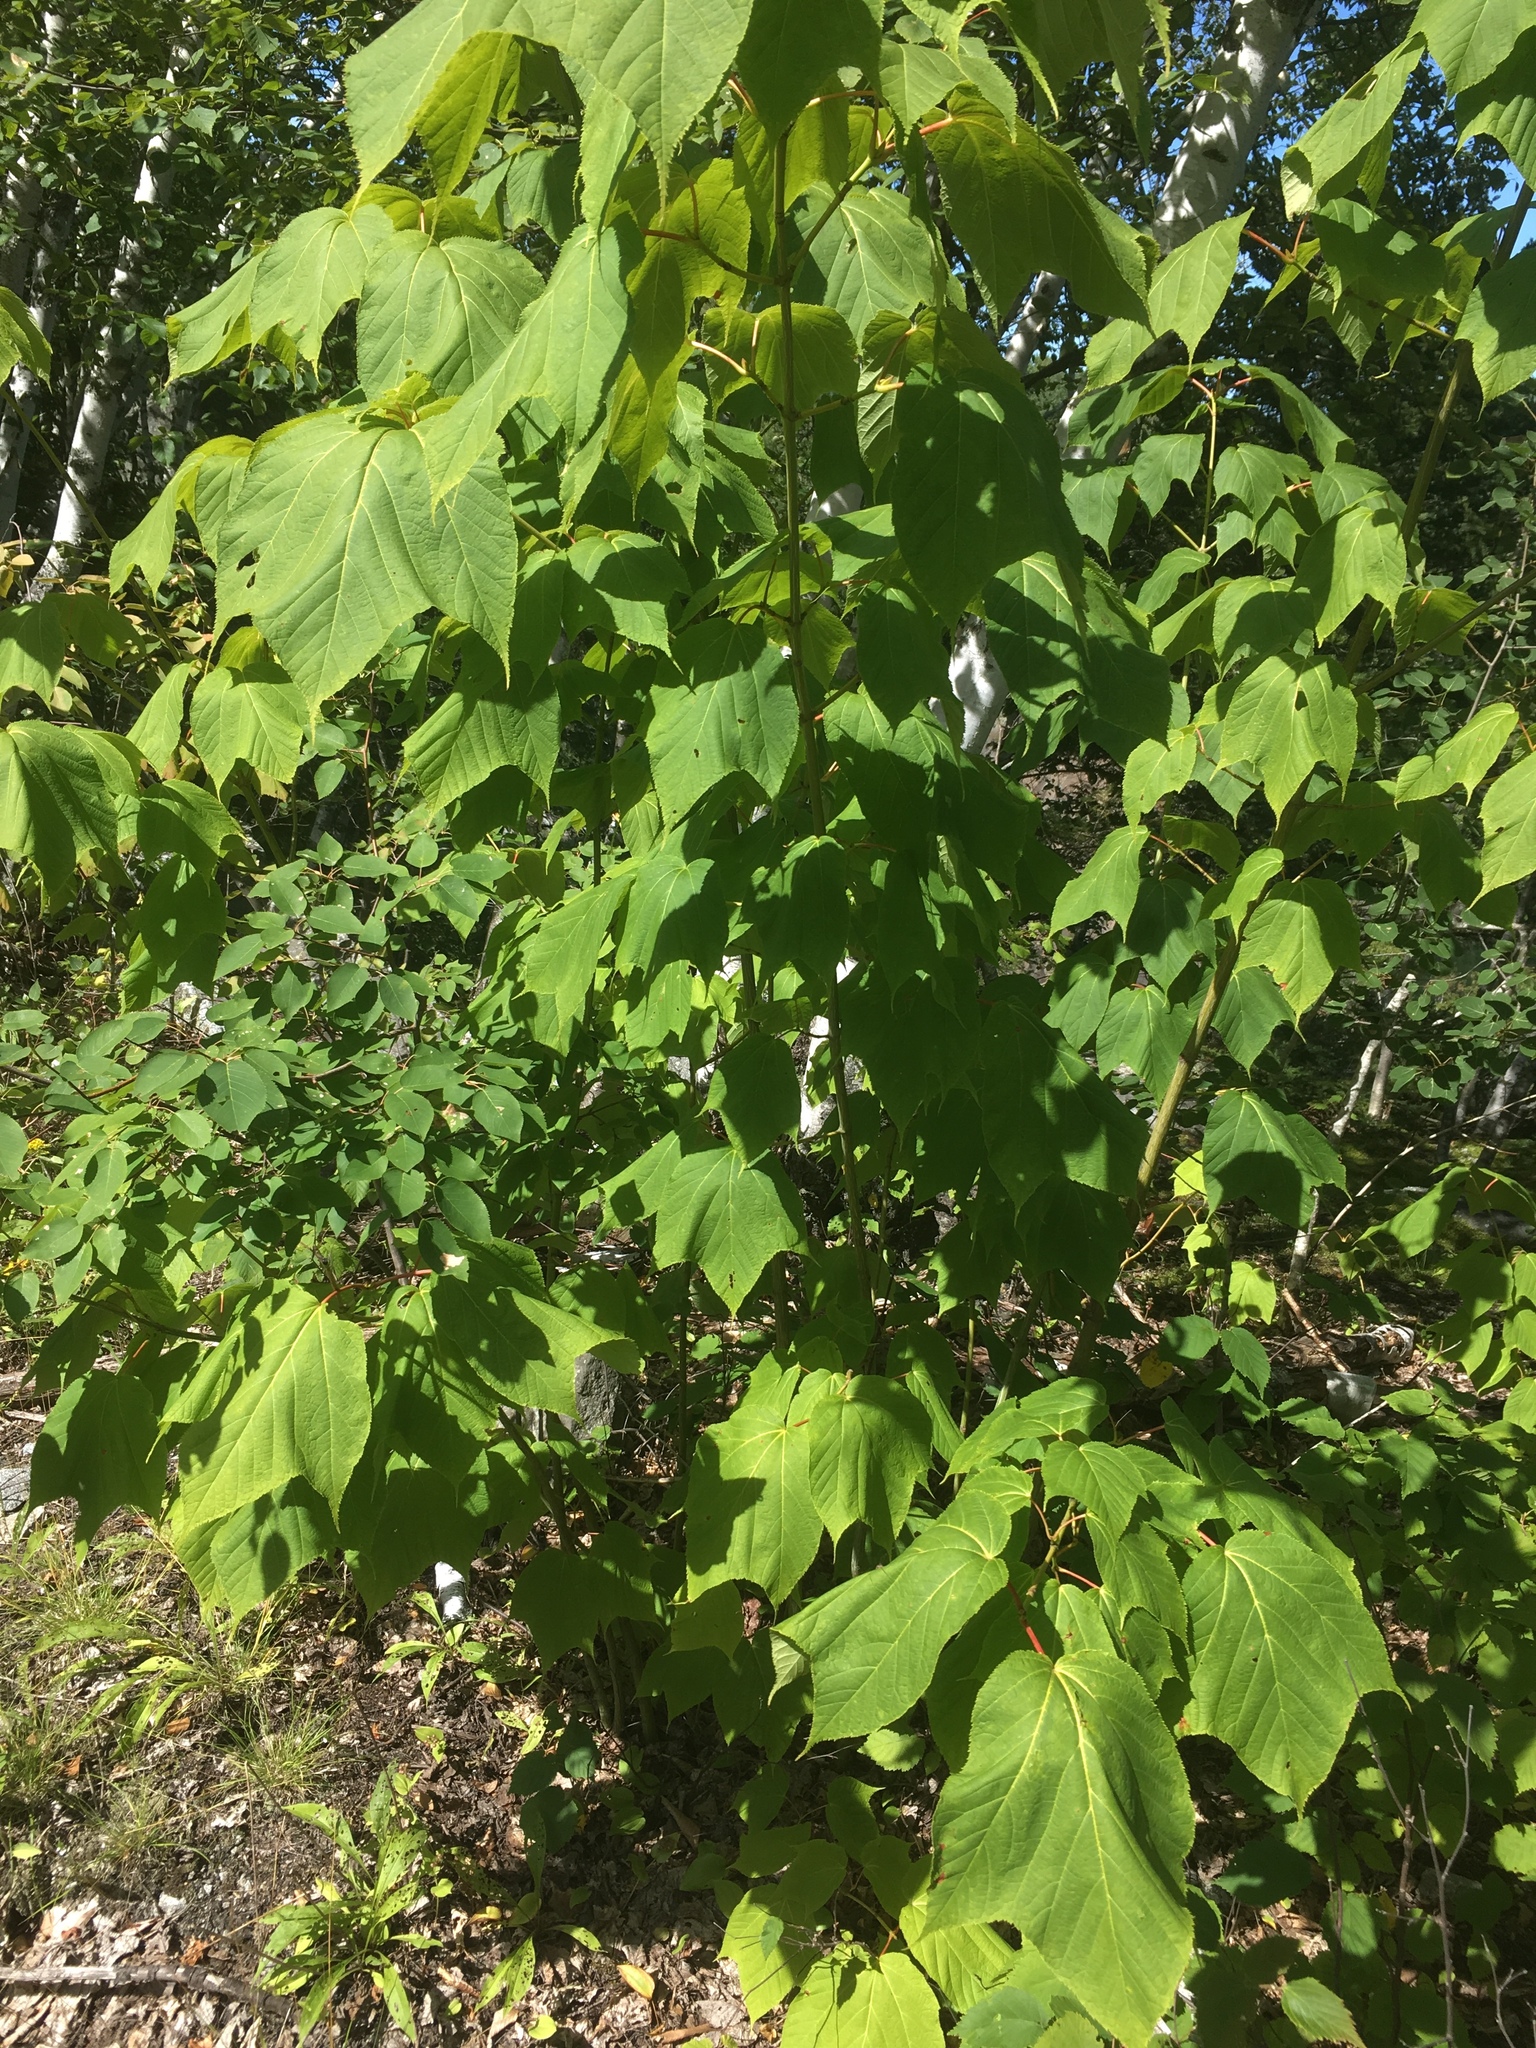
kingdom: Plantae
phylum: Tracheophyta
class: Magnoliopsida
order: Sapindales
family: Sapindaceae
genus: Acer
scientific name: Acer pensylvanicum
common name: Moosewood
